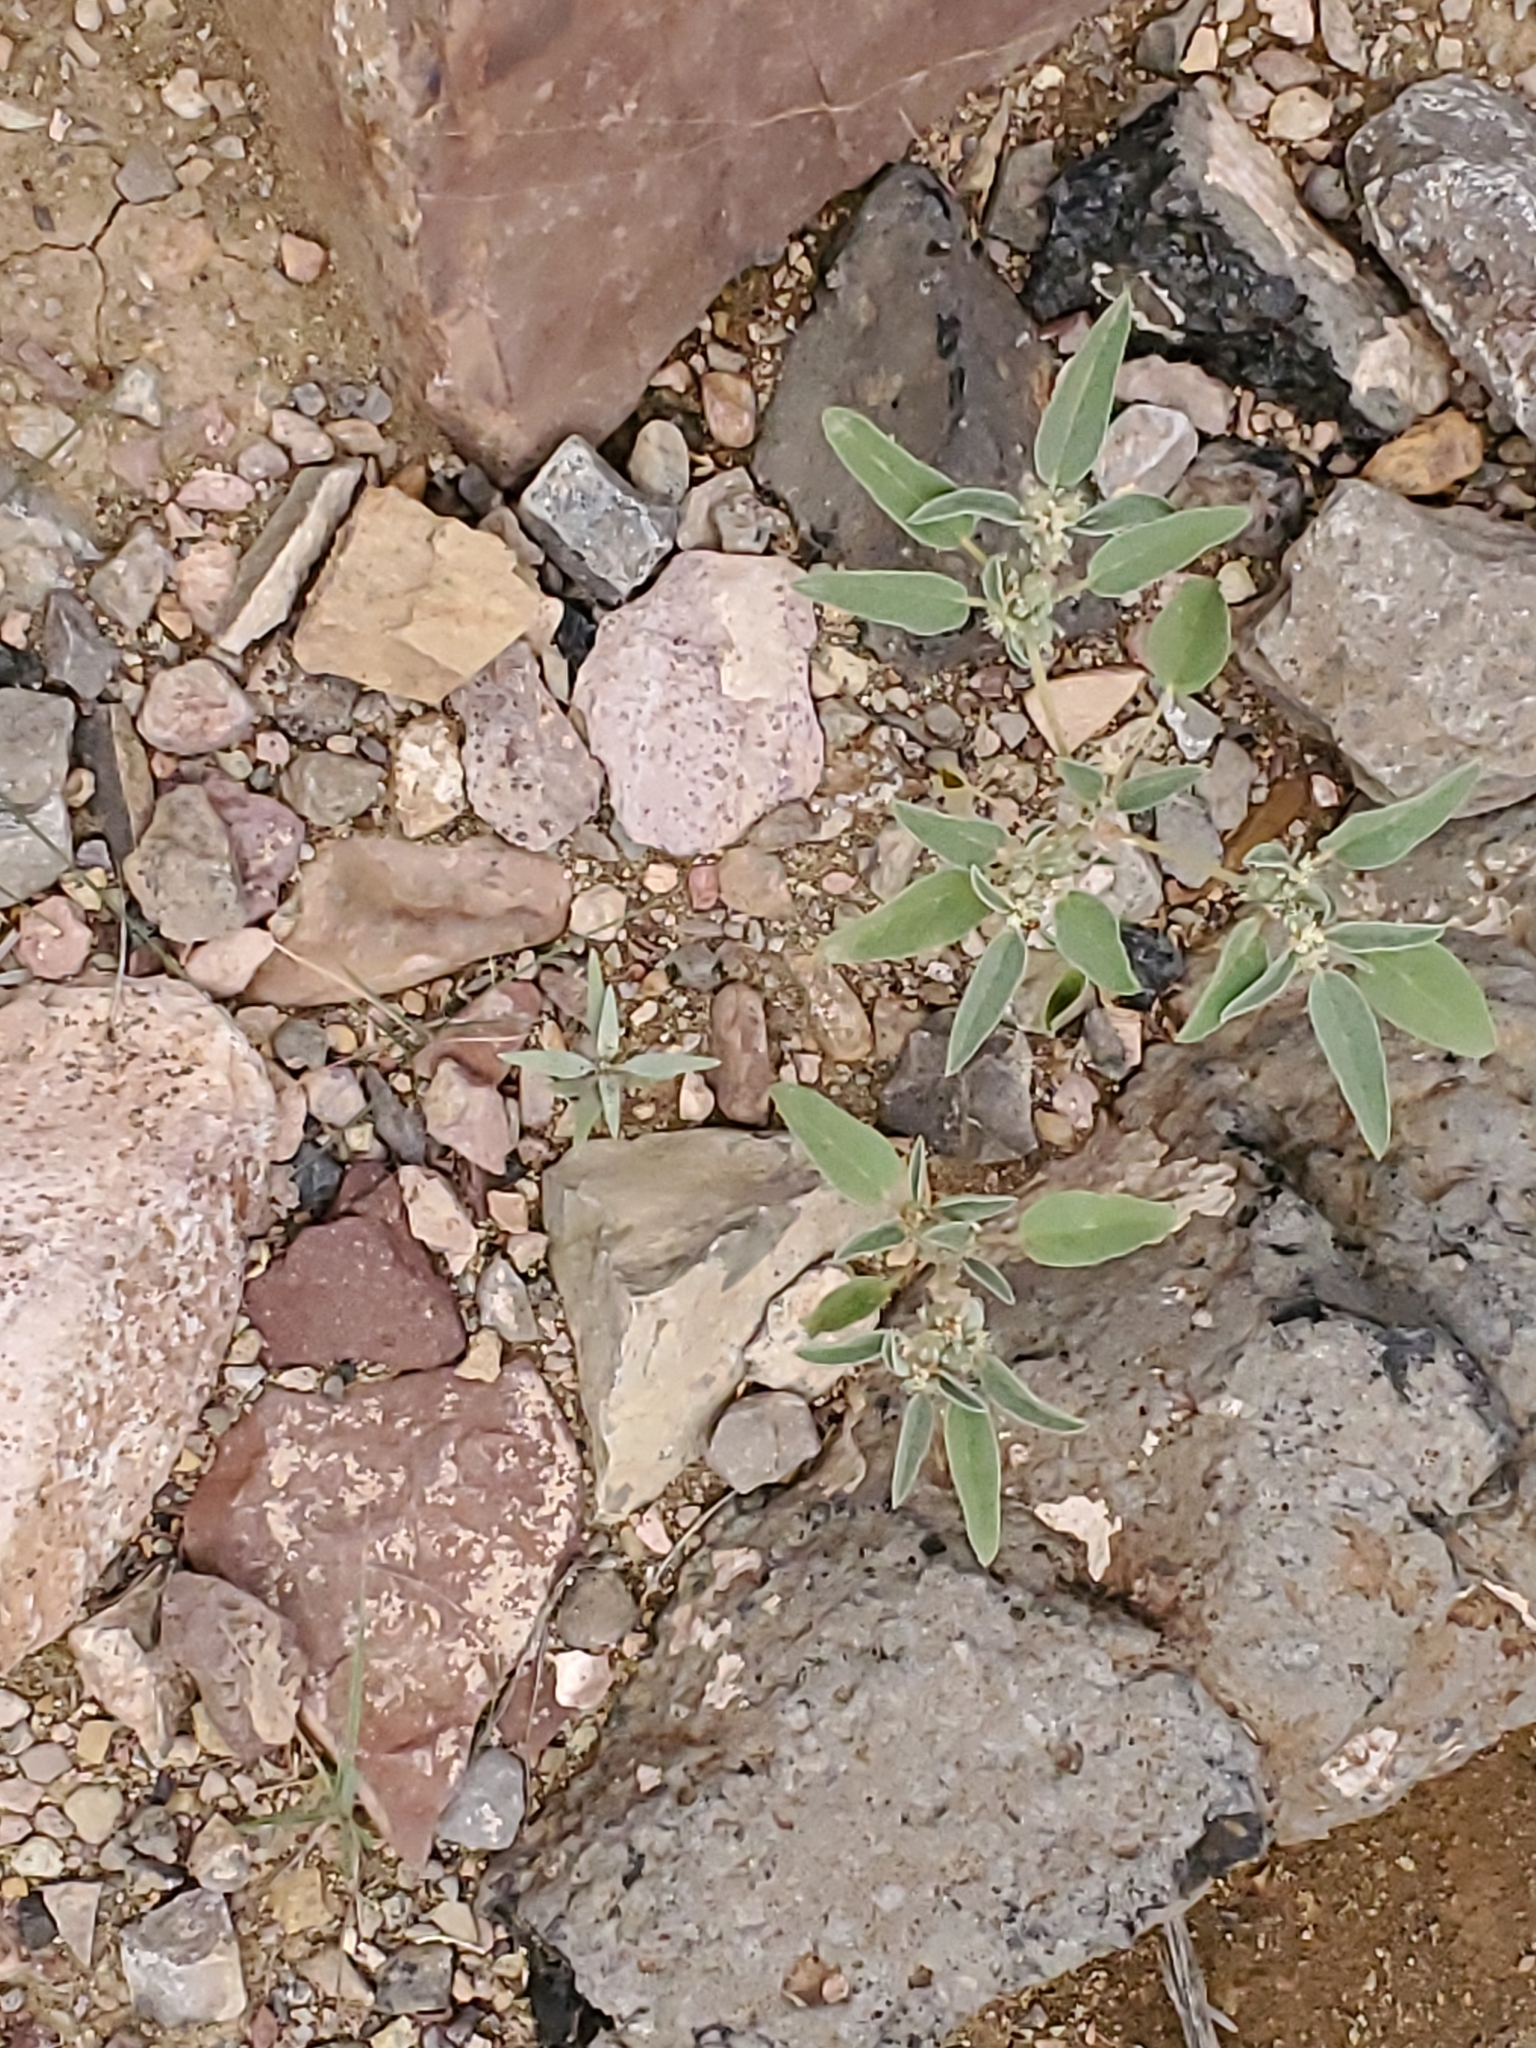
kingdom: Plantae
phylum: Tracheophyta
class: Magnoliopsida
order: Malpighiales
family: Euphorbiaceae
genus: Croton
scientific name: Croton texensis
